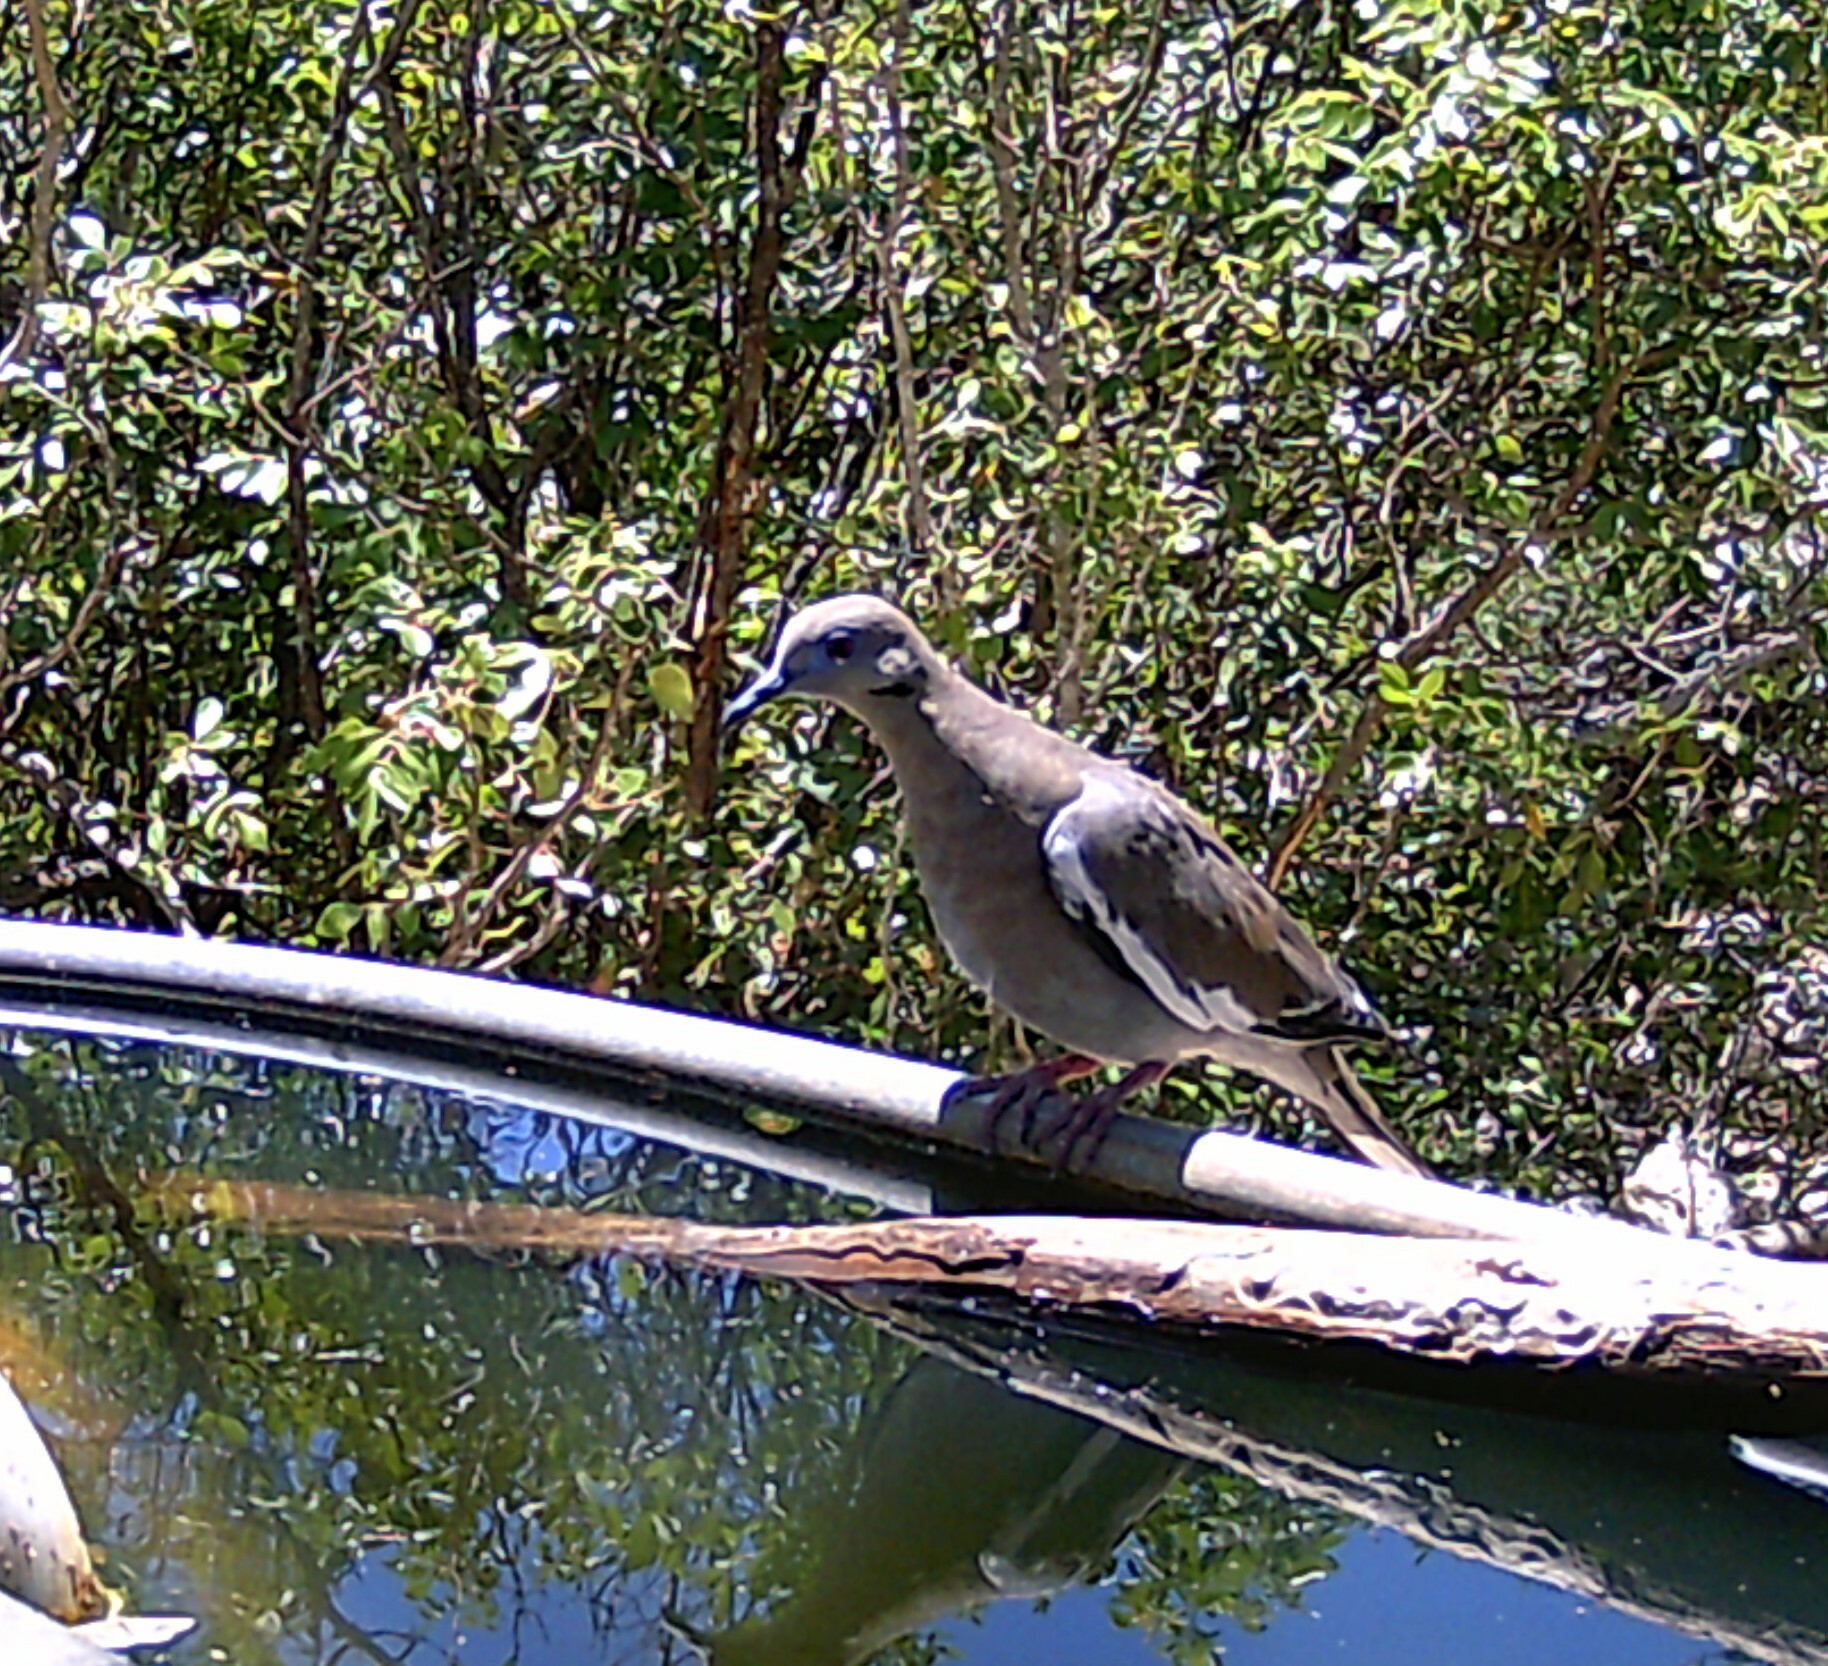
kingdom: Animalia
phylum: Chordata
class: Aves
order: Columbiformes
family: Columbidae
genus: Zenaida
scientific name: Zenaida asiatica
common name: White-winged dove
